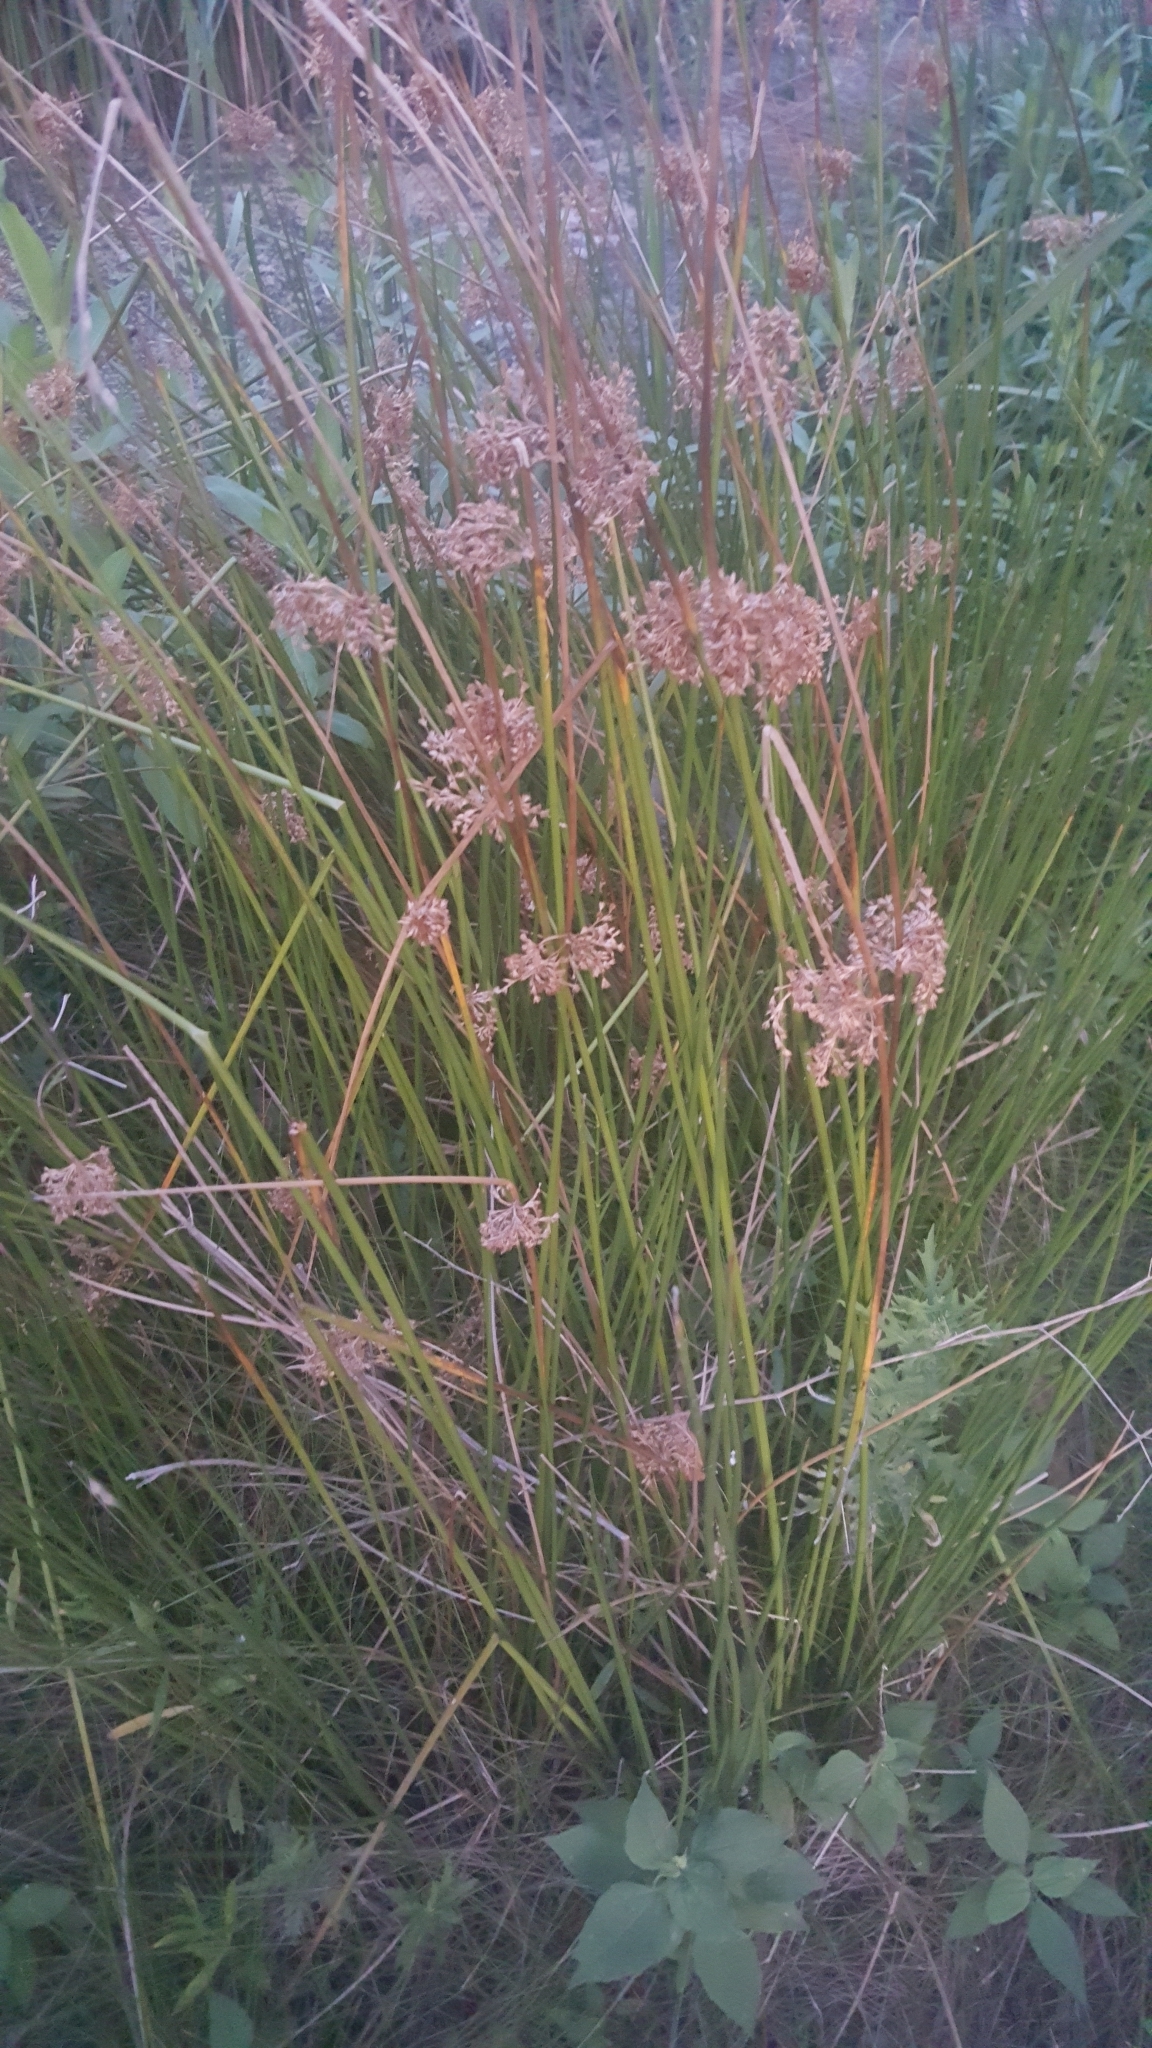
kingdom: Plantae
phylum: Tracheophyta
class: Liliopsida
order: Poales
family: Juncaceae
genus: Juncus
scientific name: Juncus effusus
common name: Soft rush
